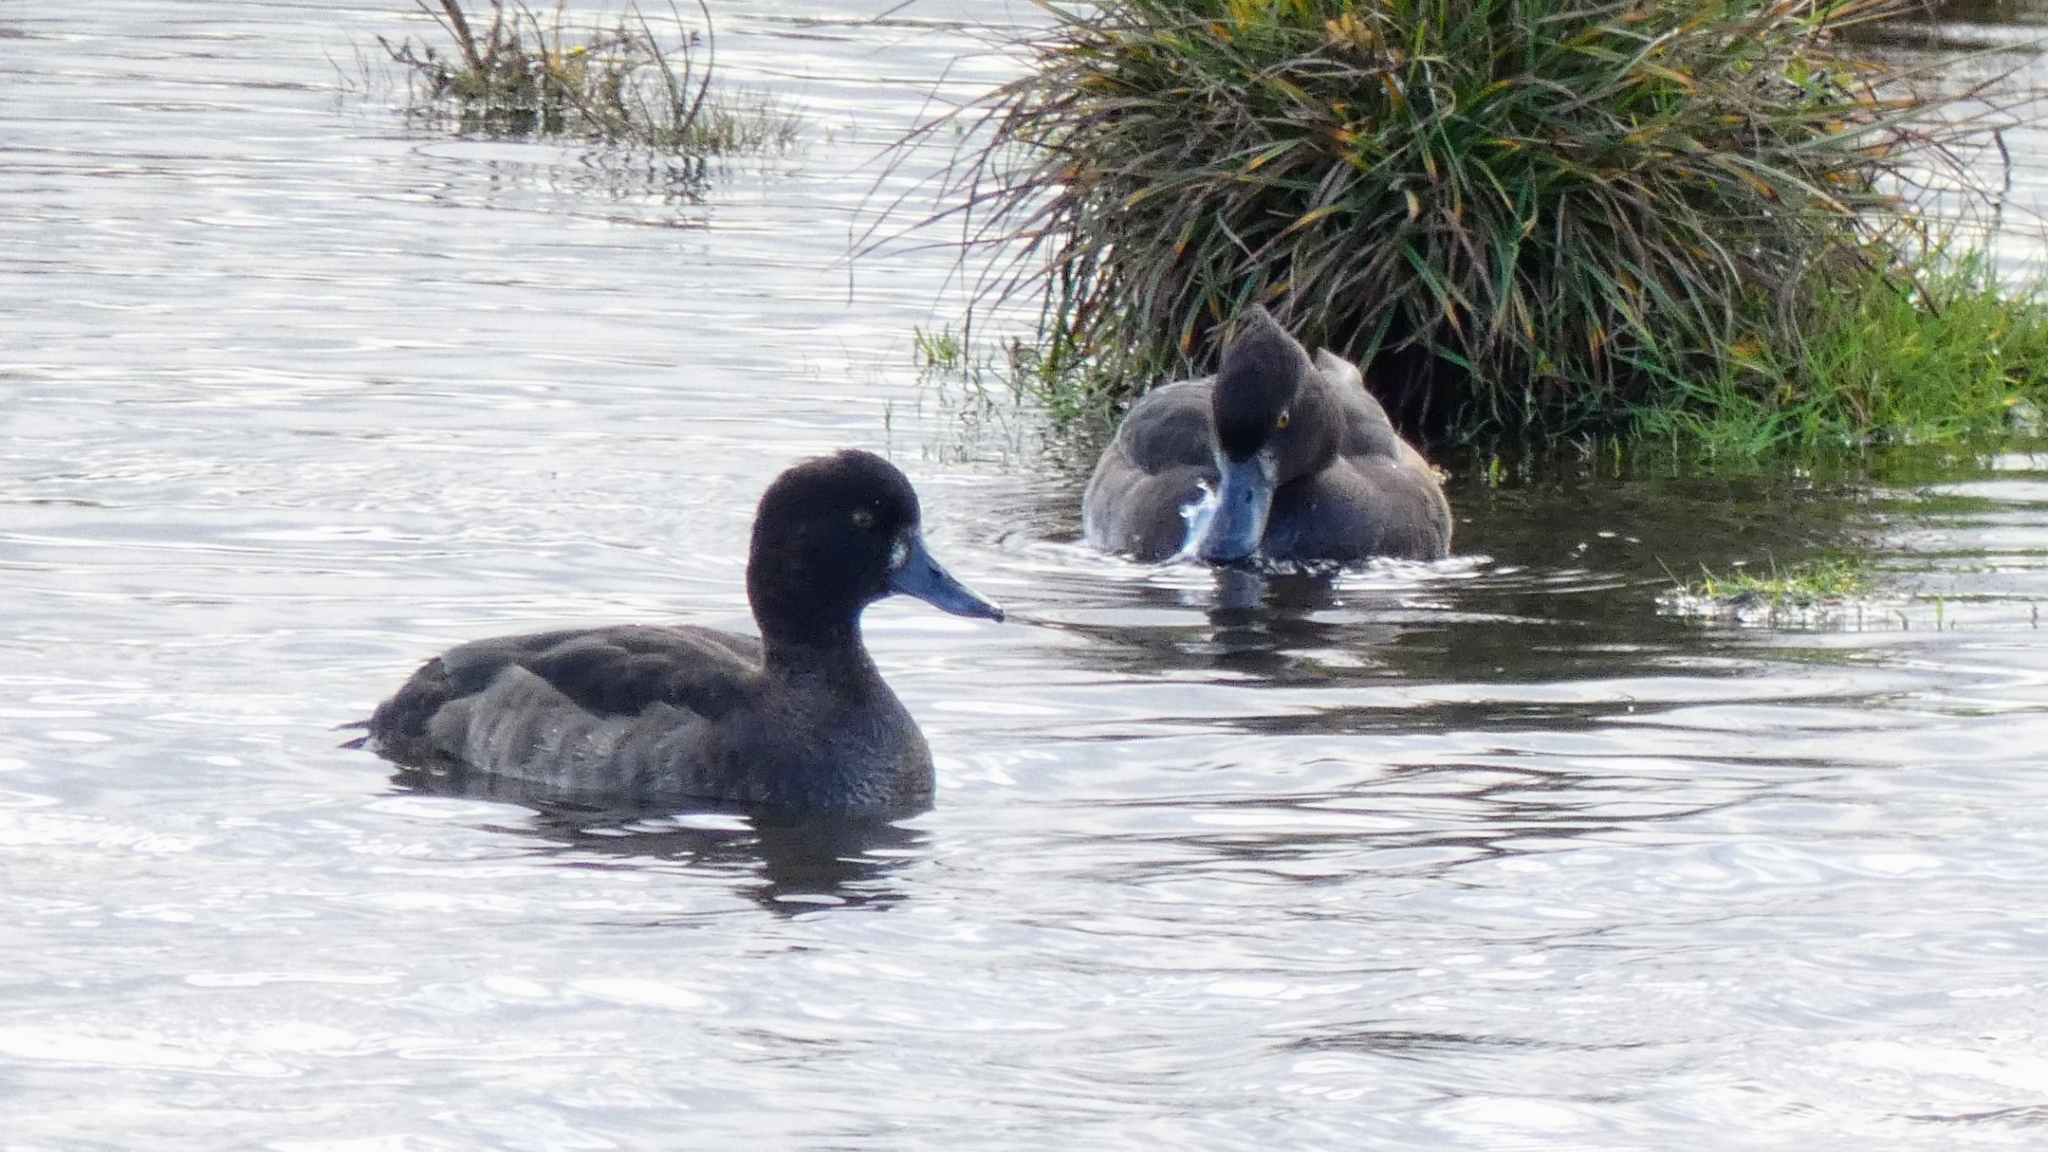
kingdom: Animalia
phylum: Chordata
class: Aves
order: Anseriformes
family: Anatidae
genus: Aythya
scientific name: Aythya fuligula
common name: Tufted duck
